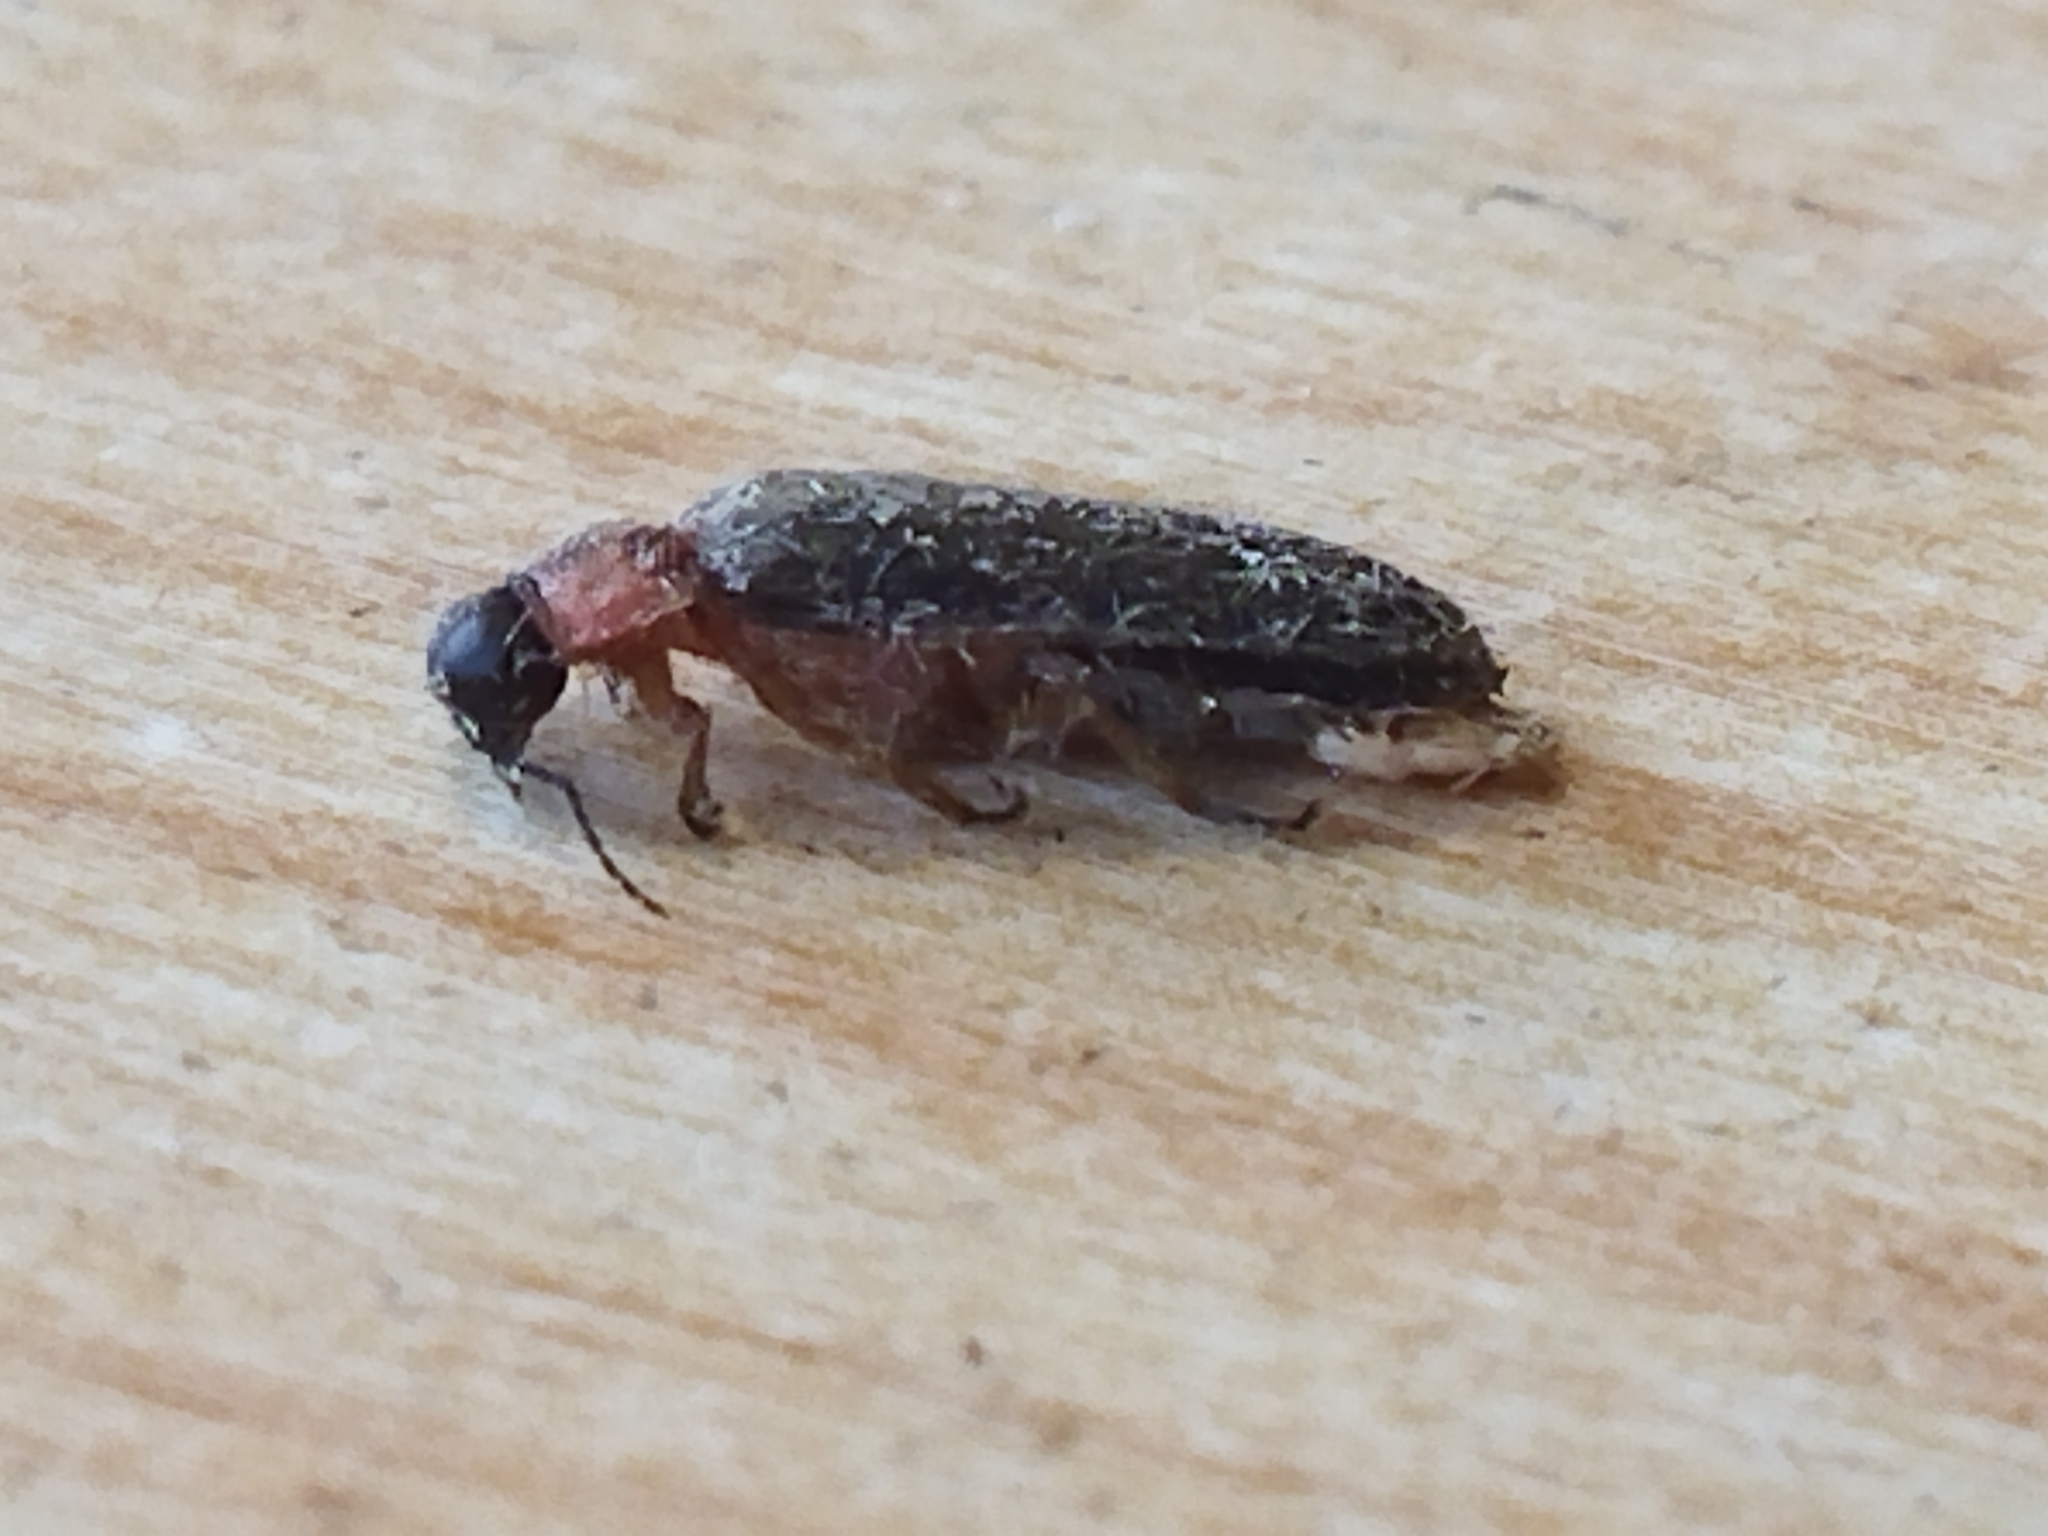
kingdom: Animalia
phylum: Arthropoda
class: Insecta
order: Coleoptera
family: Lampyridae
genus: Luciola
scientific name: Luciola lusitanica
